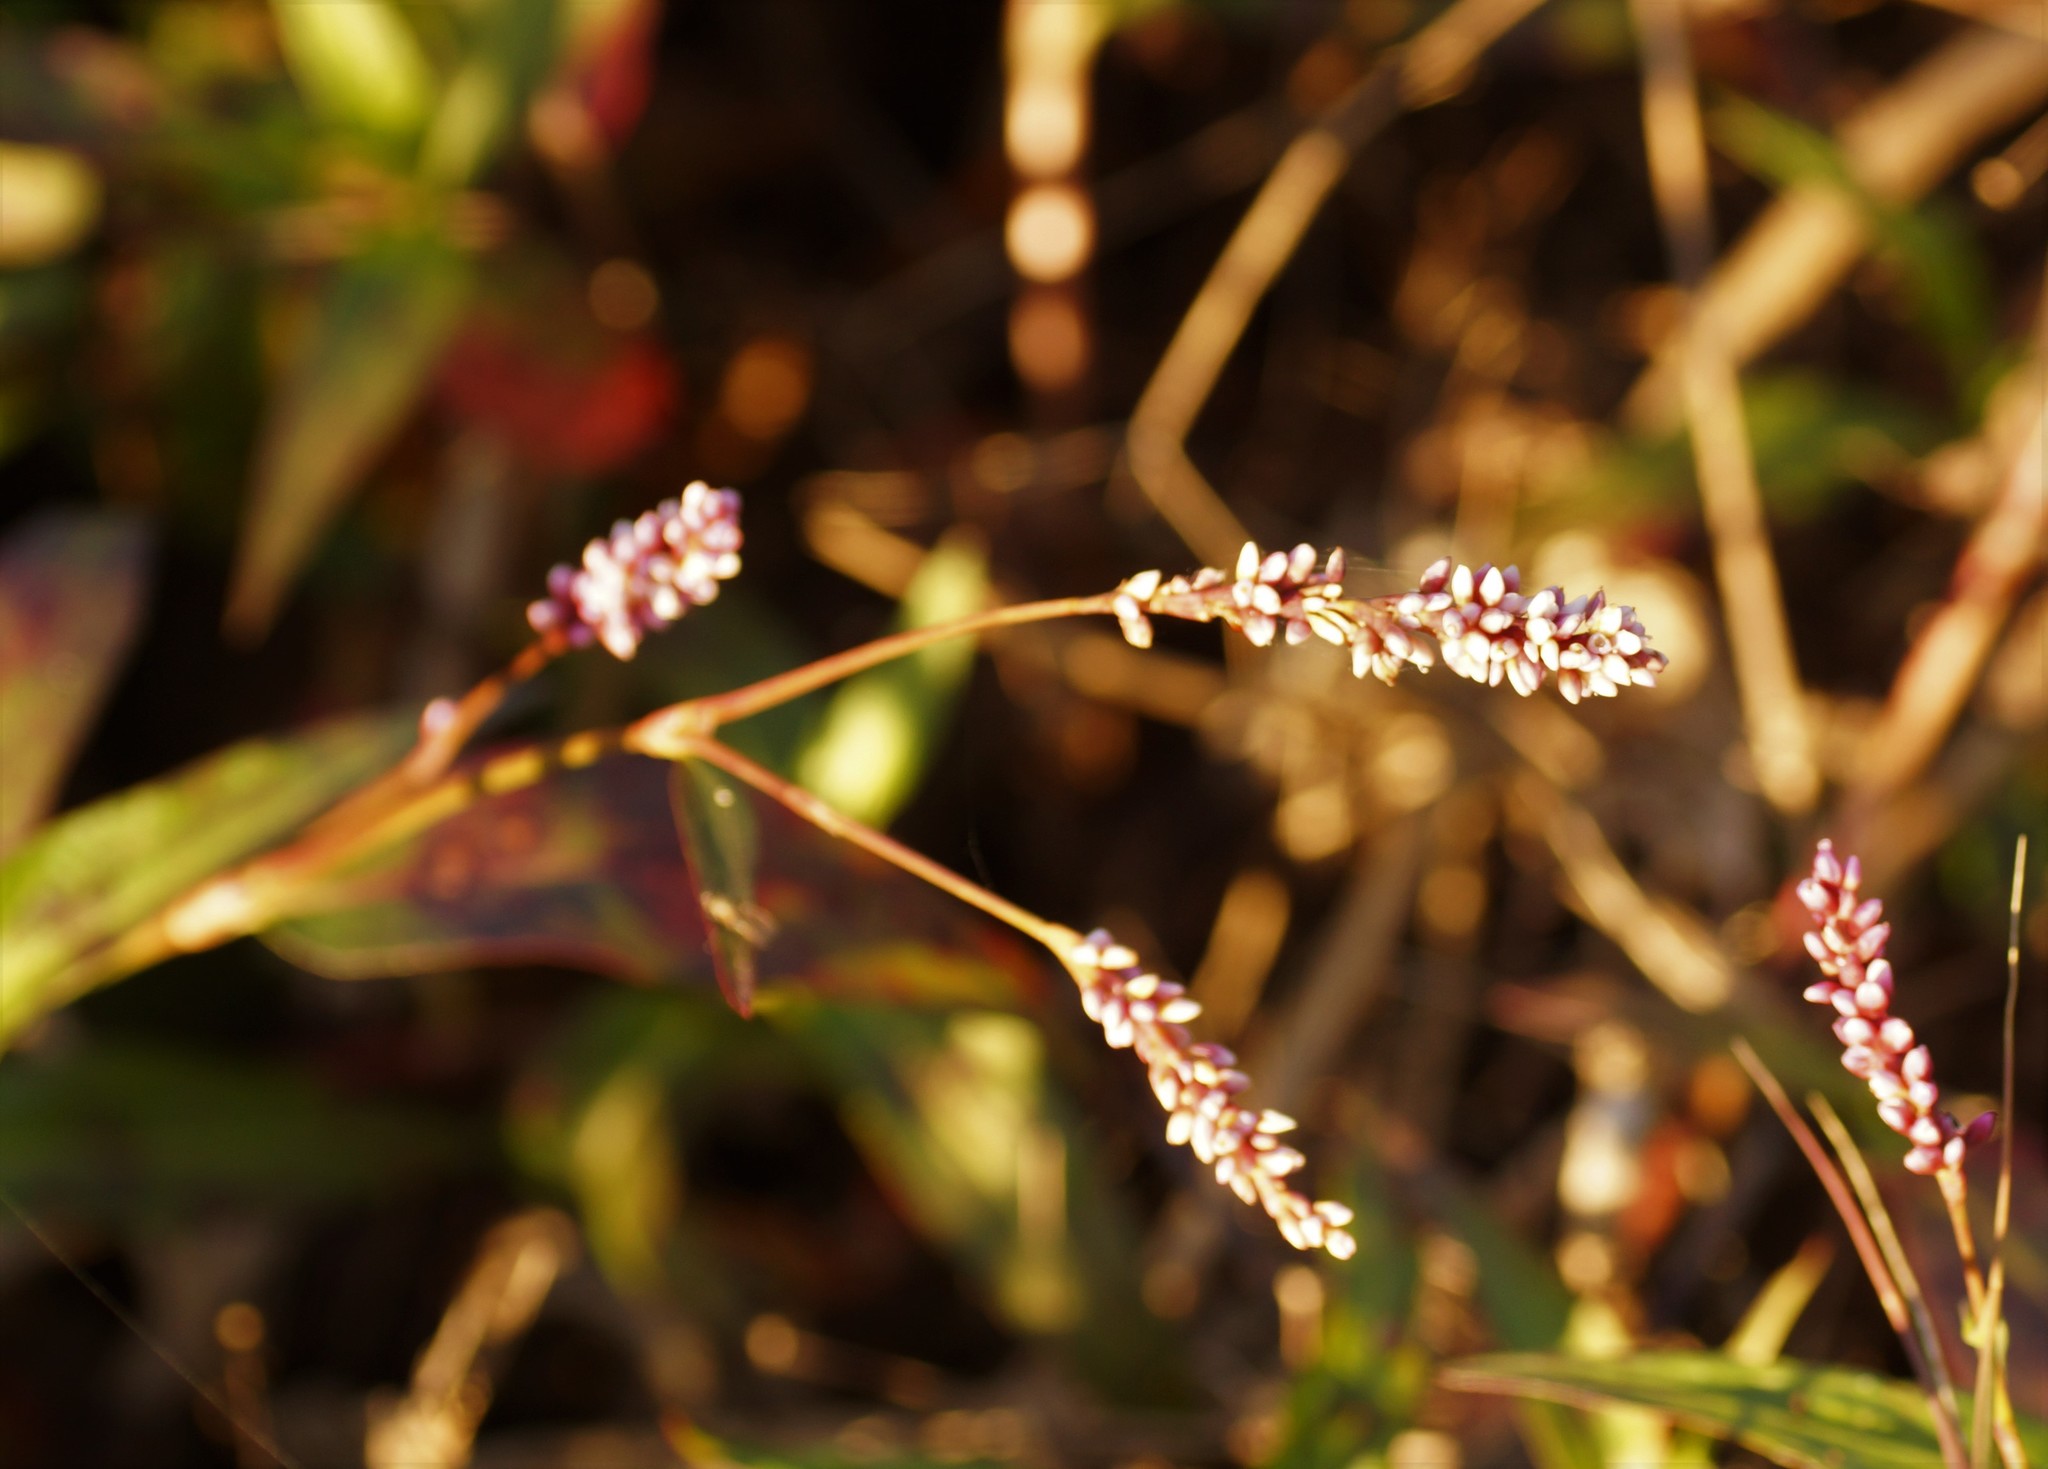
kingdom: Plantae
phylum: Tracheophyta
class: Magnoliopsida
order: Caryophyllales
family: Polygonaceae
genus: Persicaria
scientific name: Persicaria decipiens
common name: Willow-weed
